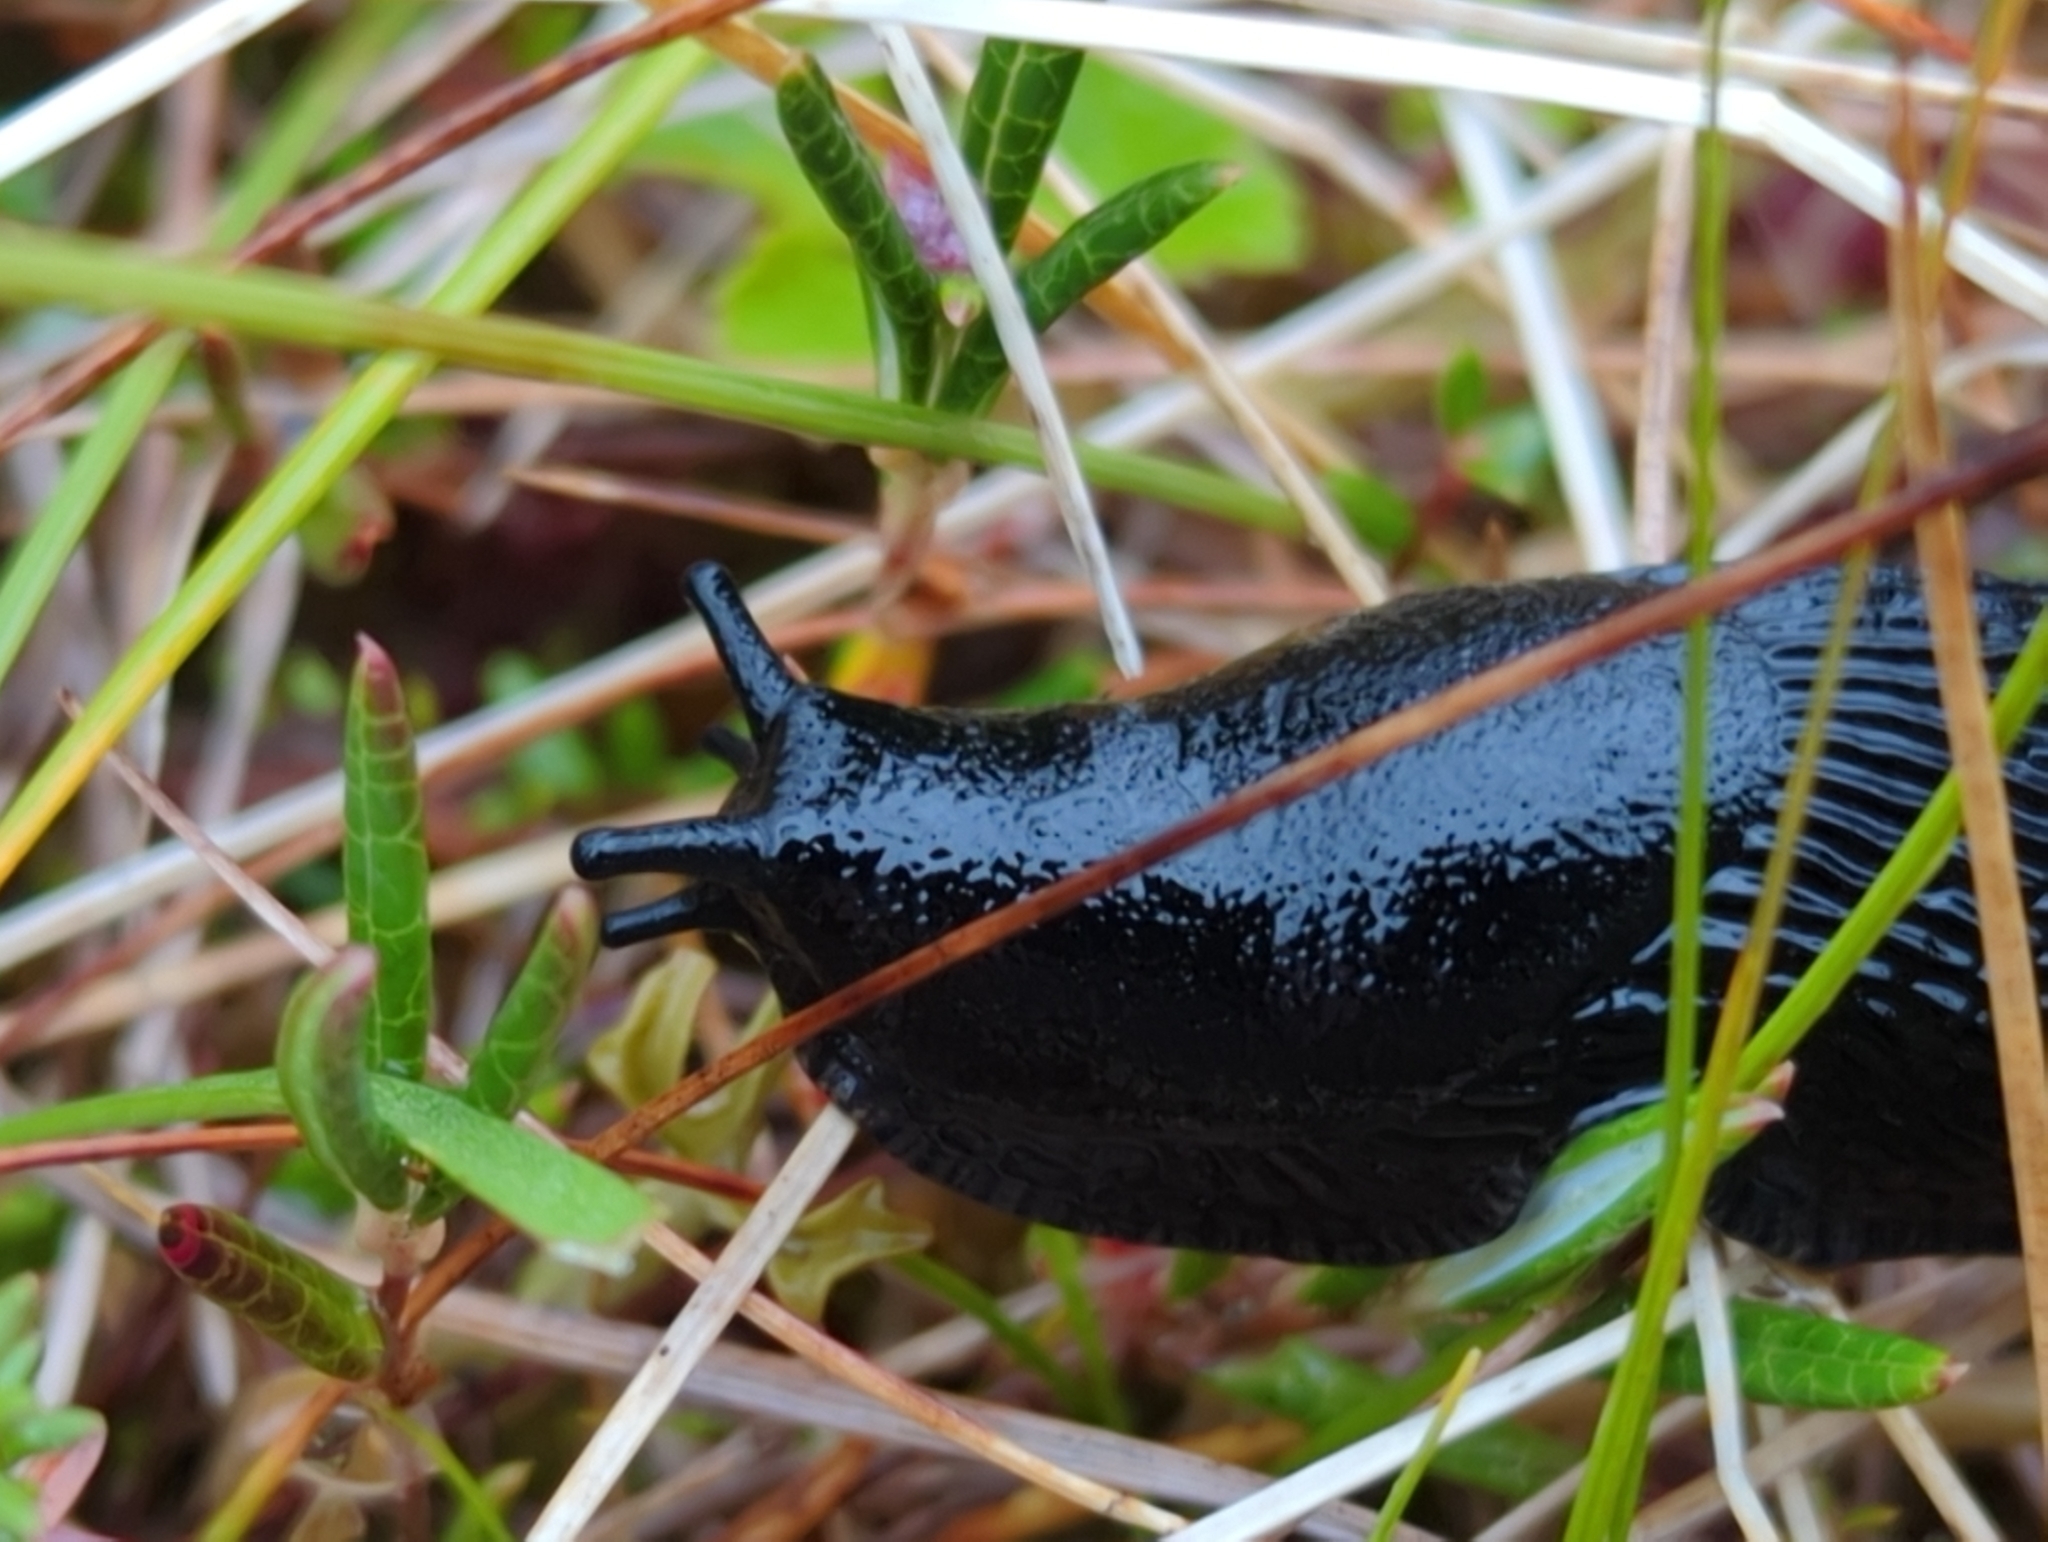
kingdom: Animalia
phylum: Mollusca
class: Gastropoda
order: Stylommatophora
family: Arionidae
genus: Arion
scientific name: Arion
